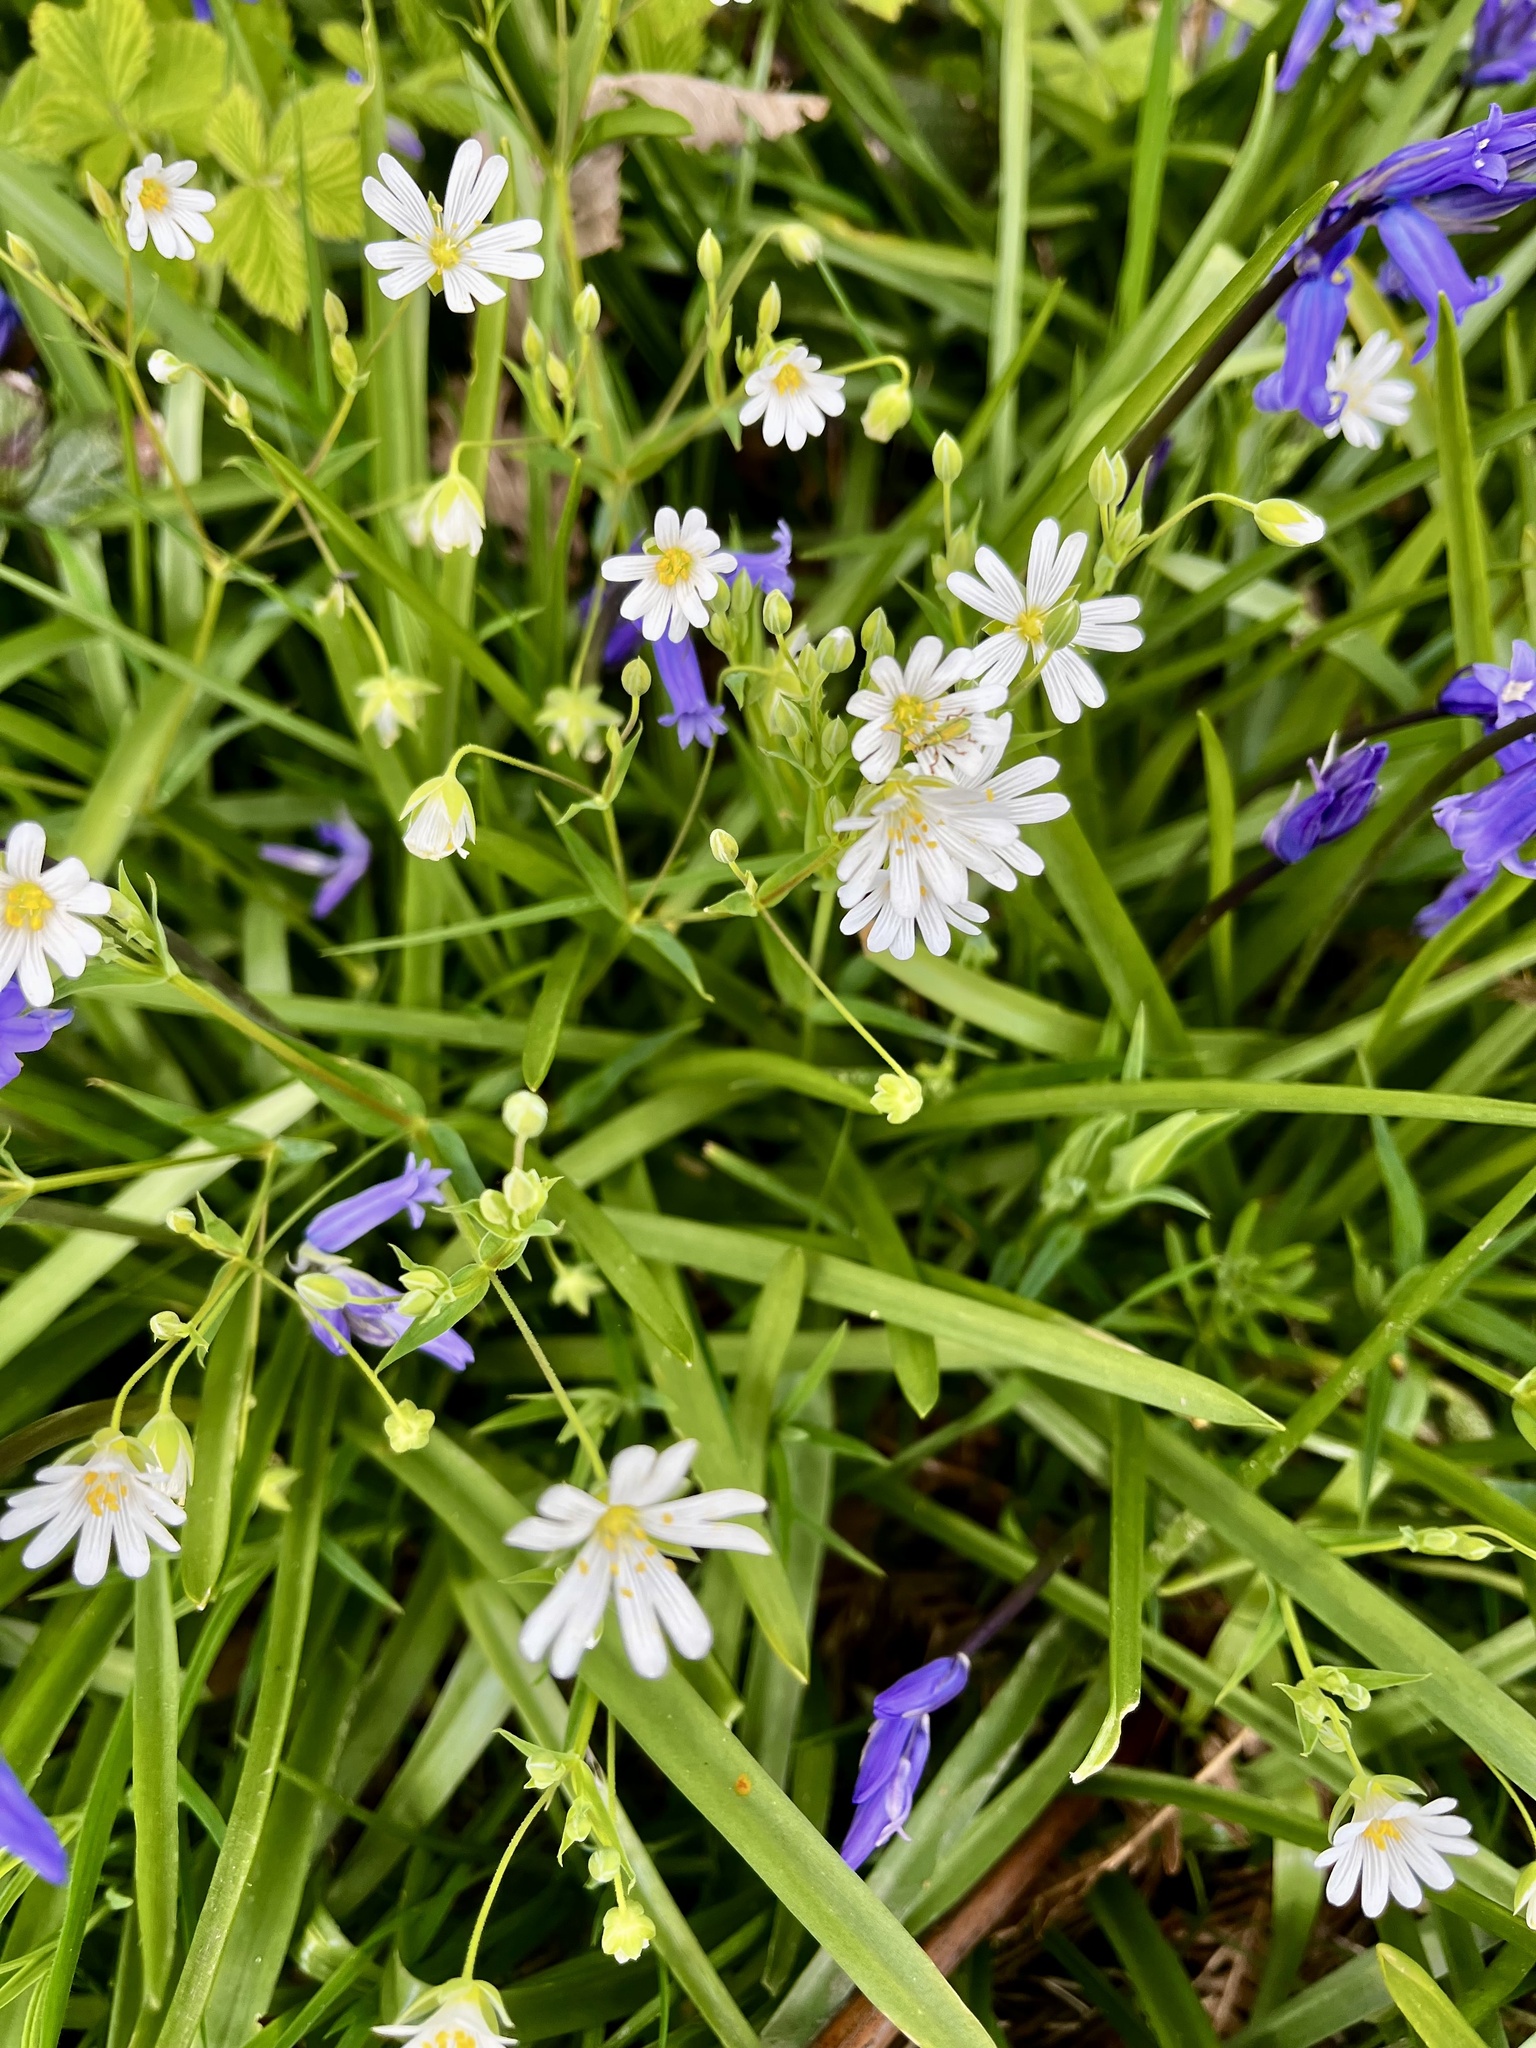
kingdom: Plantae
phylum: Tracheophyta
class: Magnoliopsida
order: Caryophyllales
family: Caryophyllaceae
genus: Rabelera
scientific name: Rabelera holostea
